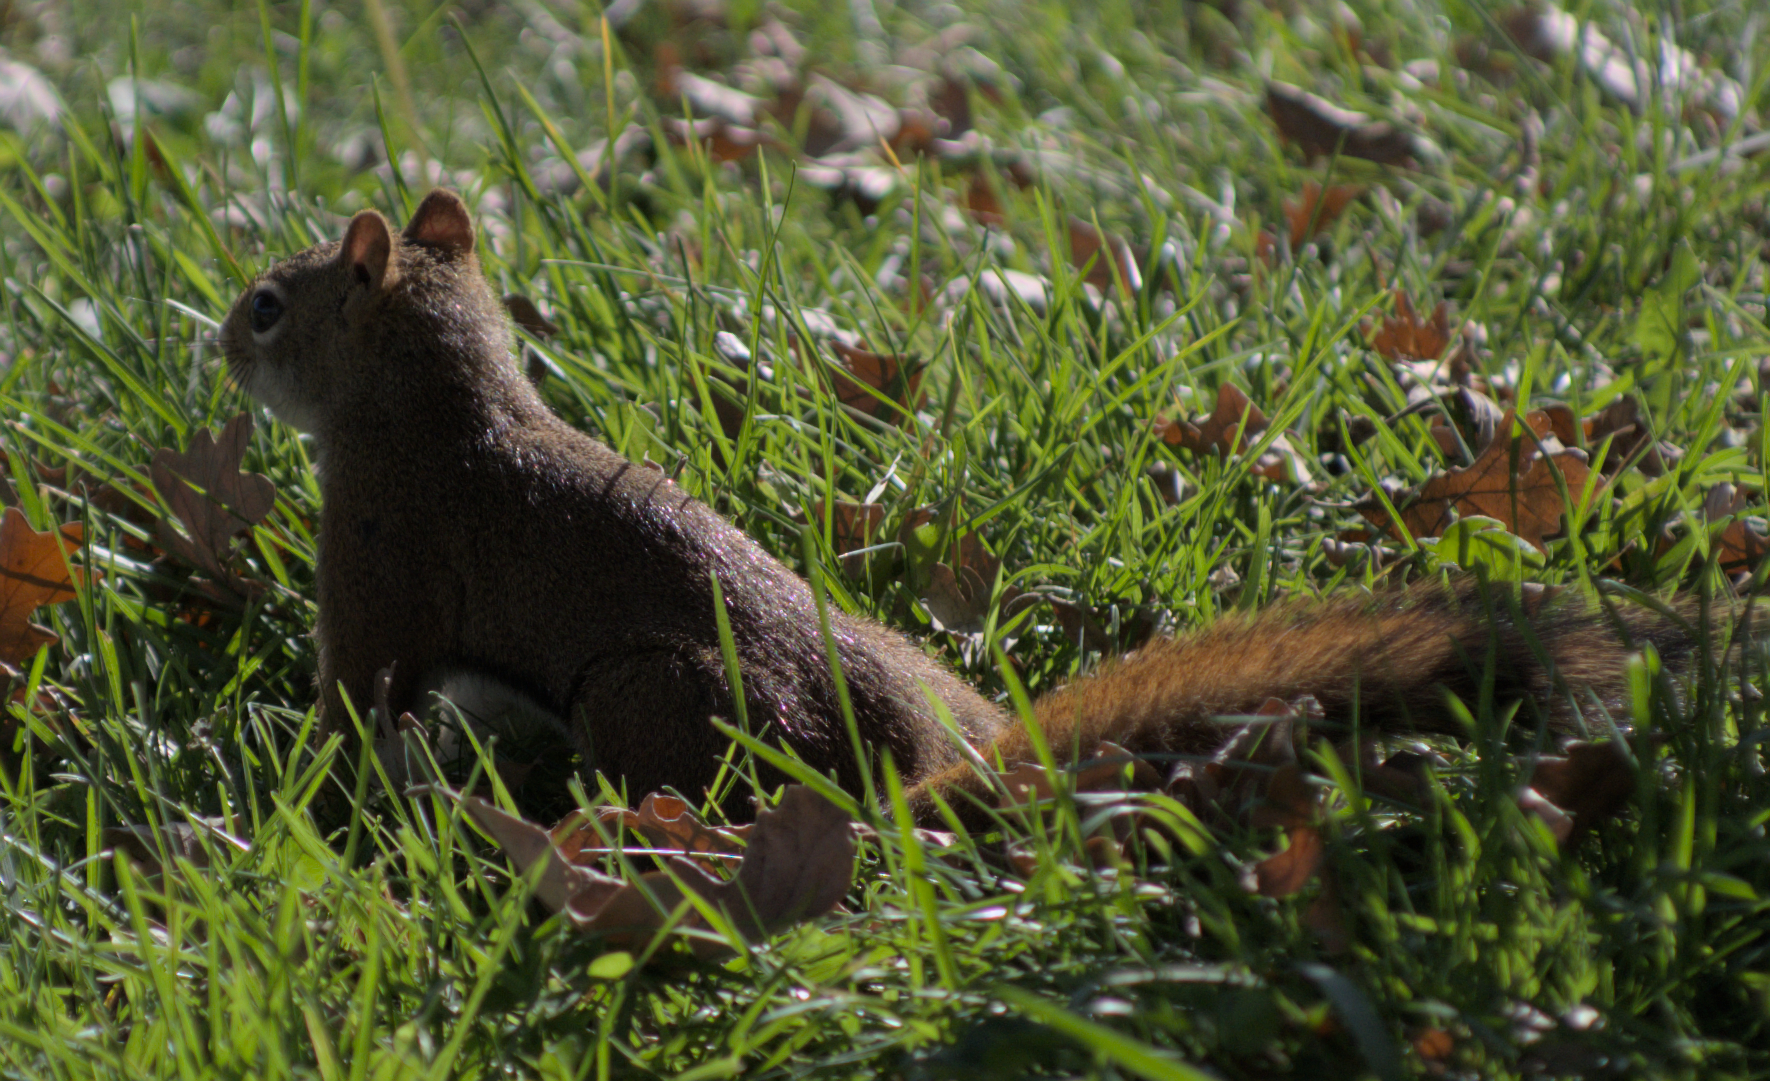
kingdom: Animalia
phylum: Chordata
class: Mammalia
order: Rodentia
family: Sciuridae
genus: Tamiasciurus
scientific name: Tamiasciurus hudsonicus
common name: Red squirrel
